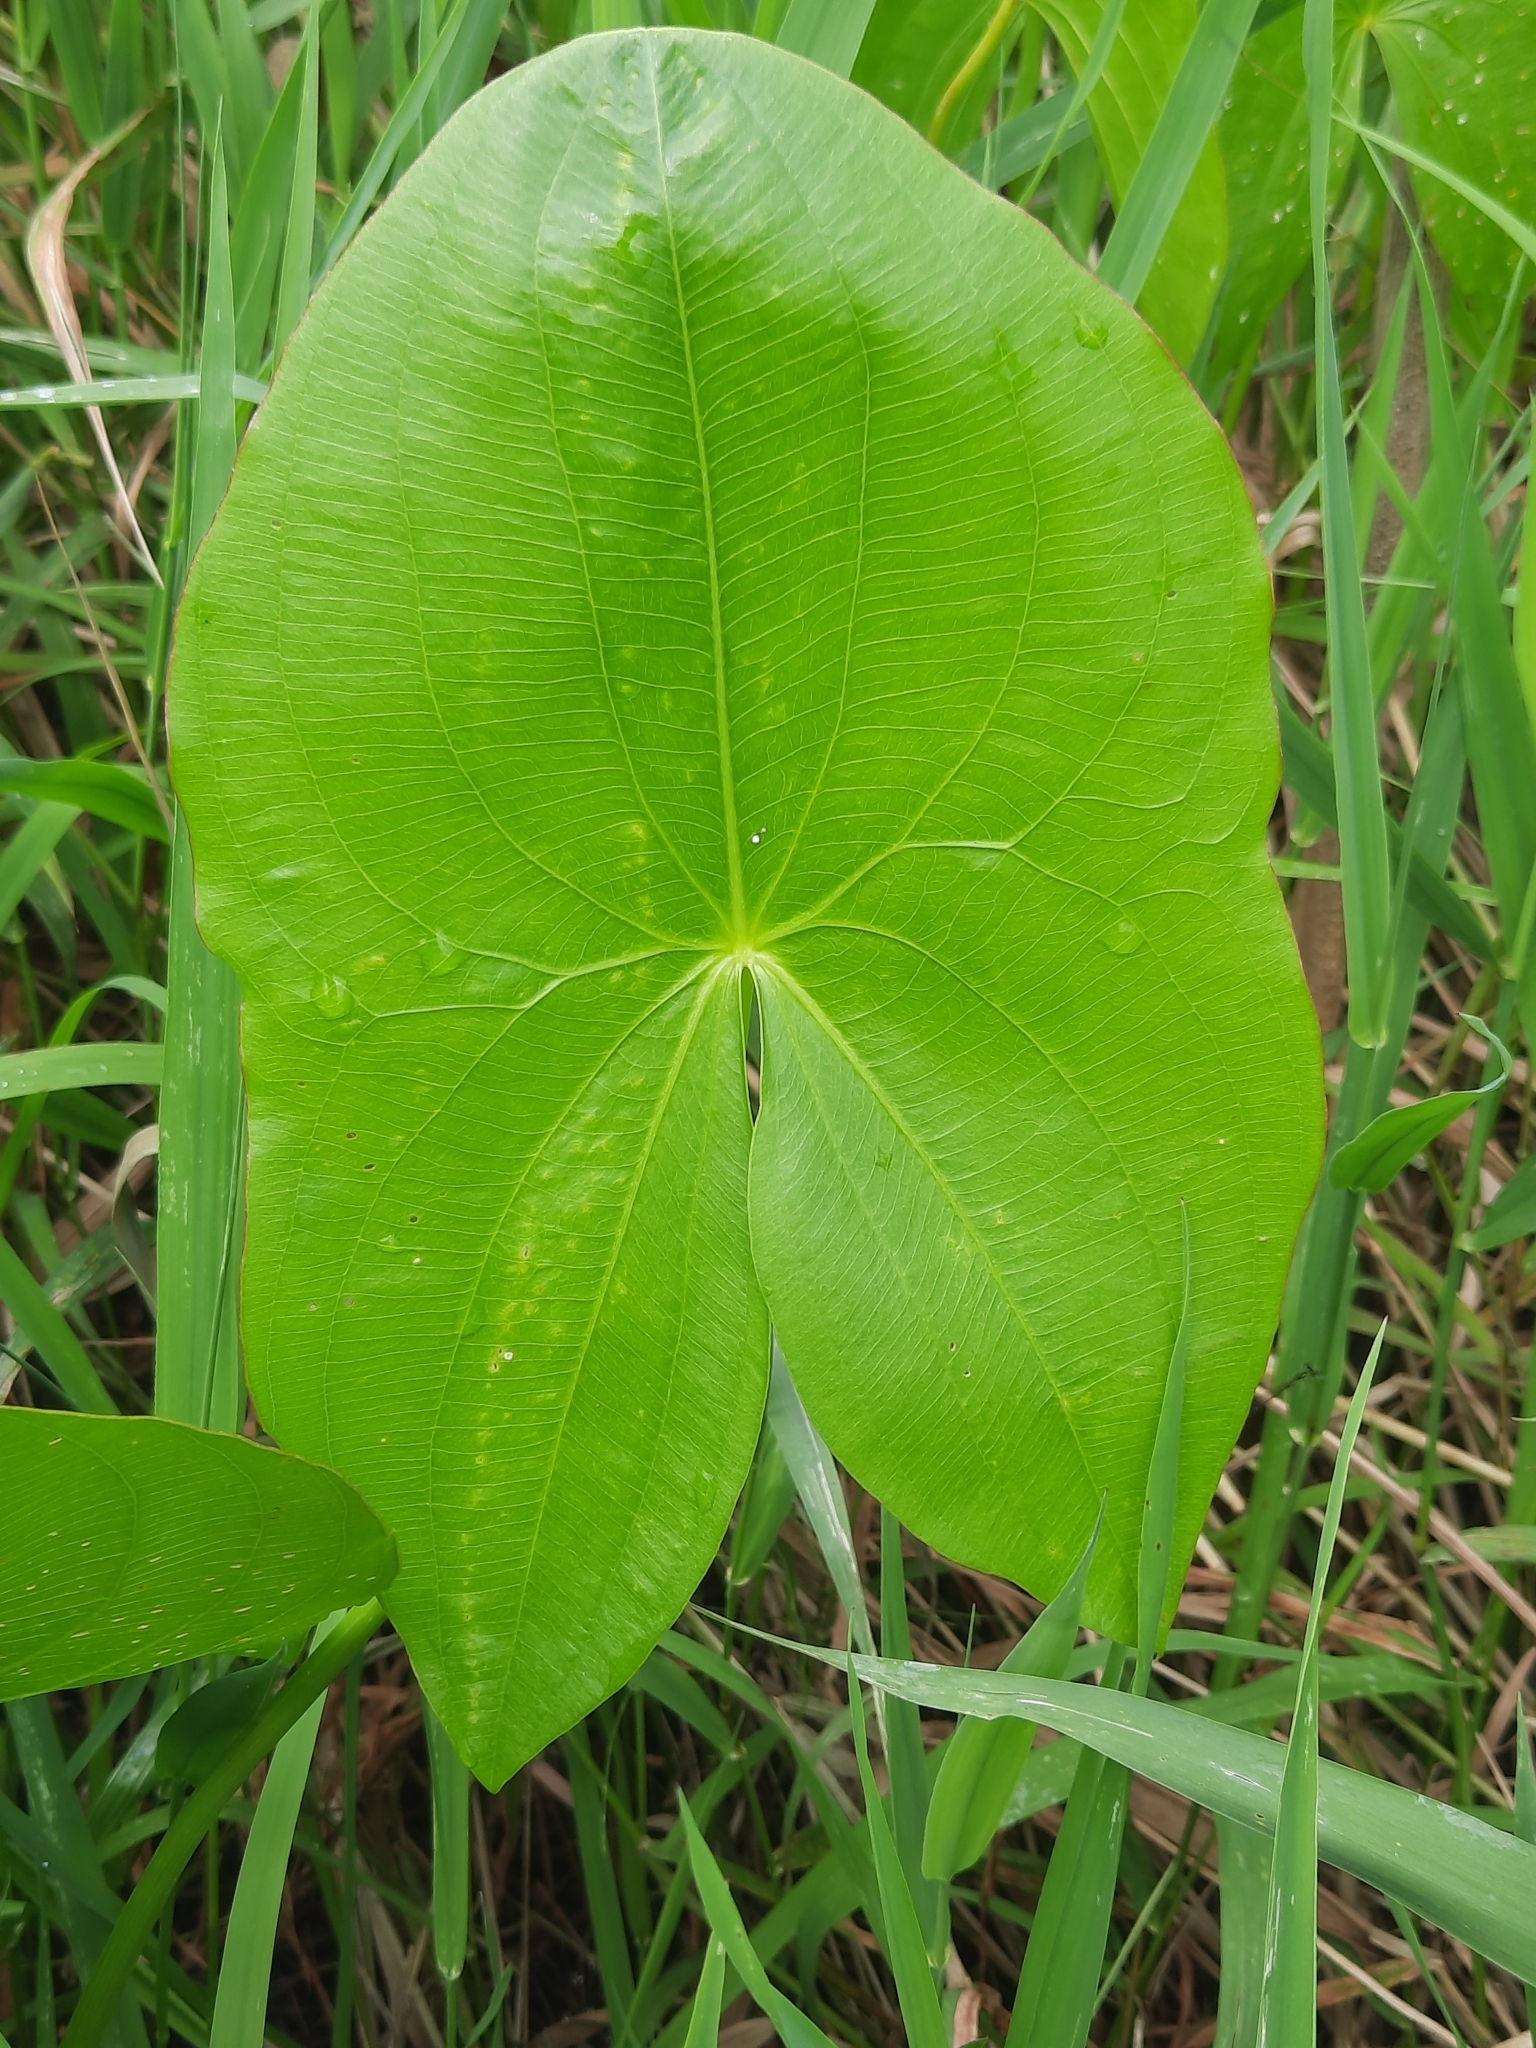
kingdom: Plantae
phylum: Tracheophyta
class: Liliopsida
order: Alismatales
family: Alismataceae
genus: Sagittaria
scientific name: Sagittaria latifolia
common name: Duck-potato
